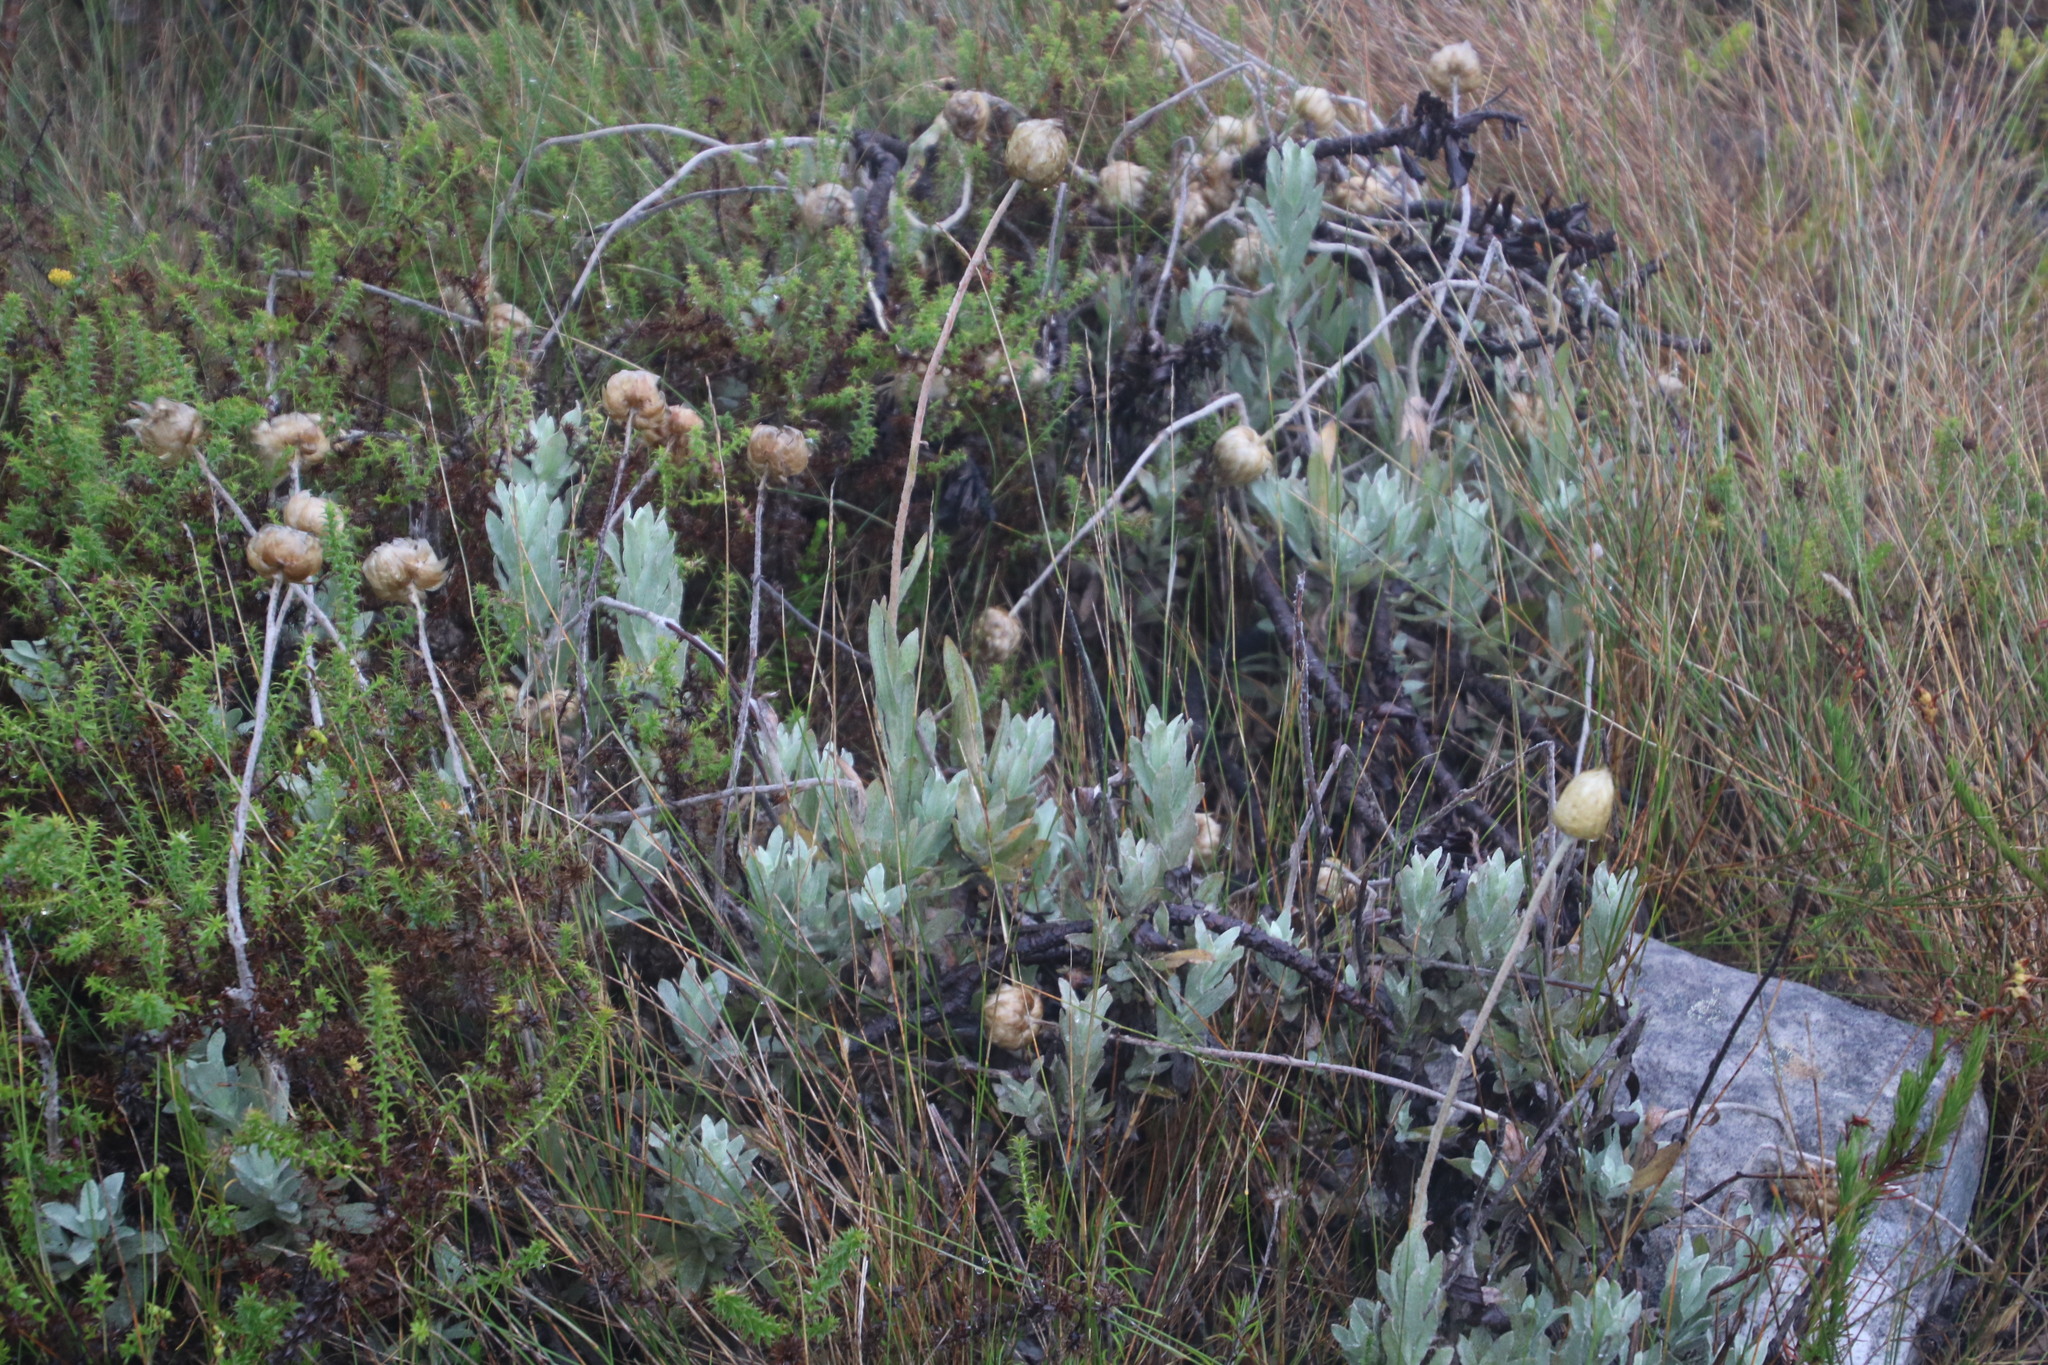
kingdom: Plantae
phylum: Tracheophyta
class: Magnoliopsida
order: Asterales
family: Asteraceae
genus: Syncarpha
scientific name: Syncarpha speciosissima
